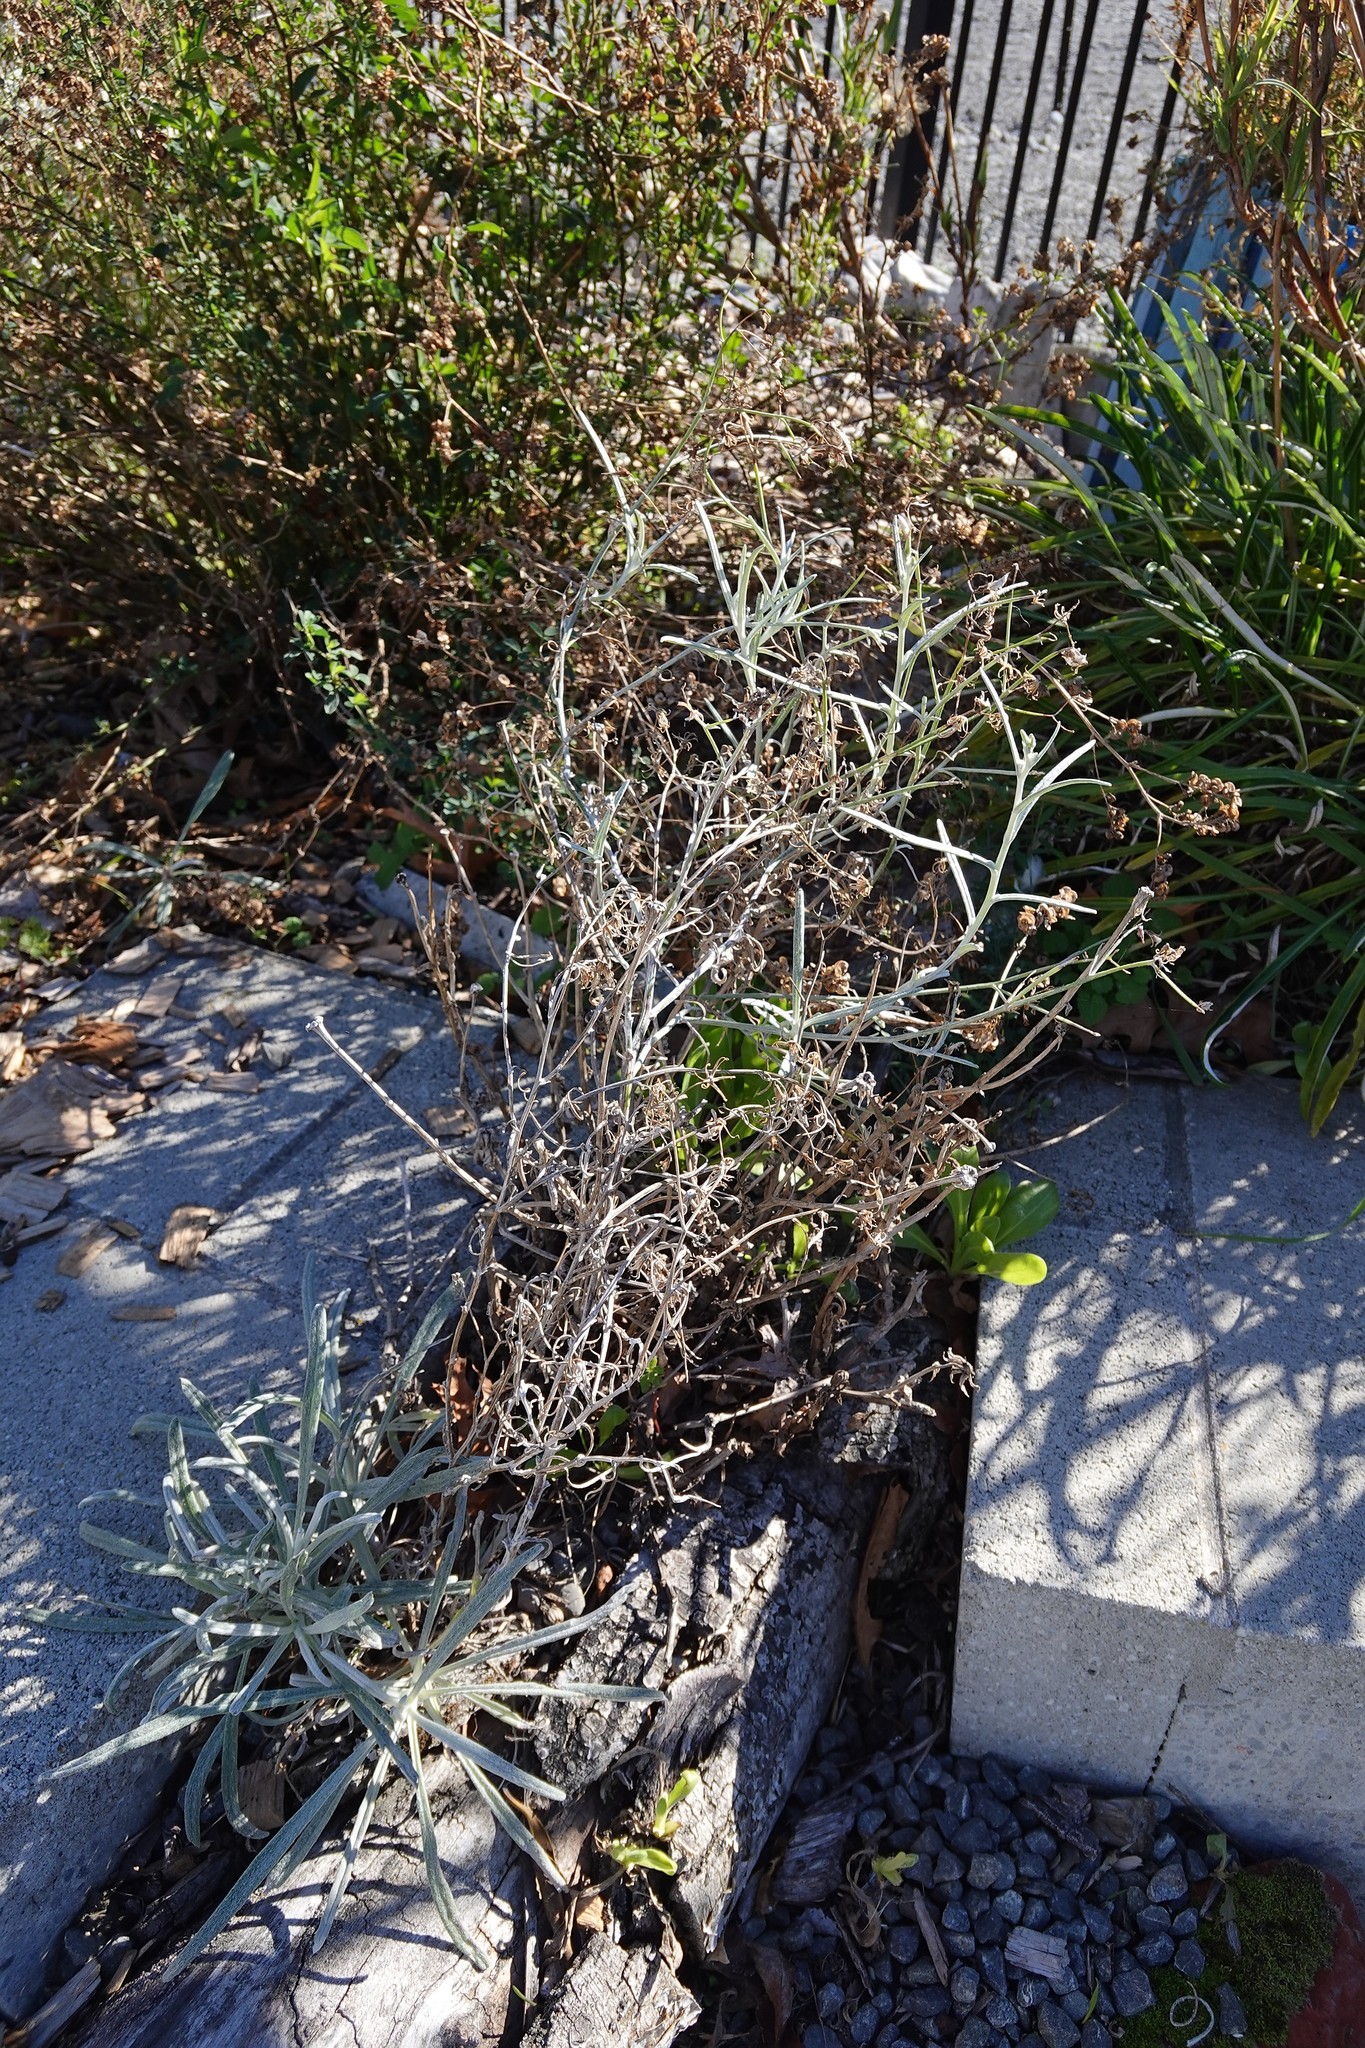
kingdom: Plantae
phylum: Tracheophyta
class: Magnoliopsida
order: Asterales
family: Asteraceae
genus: Senecio
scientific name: Senecio quadridentatus
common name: Cotton fireweed
